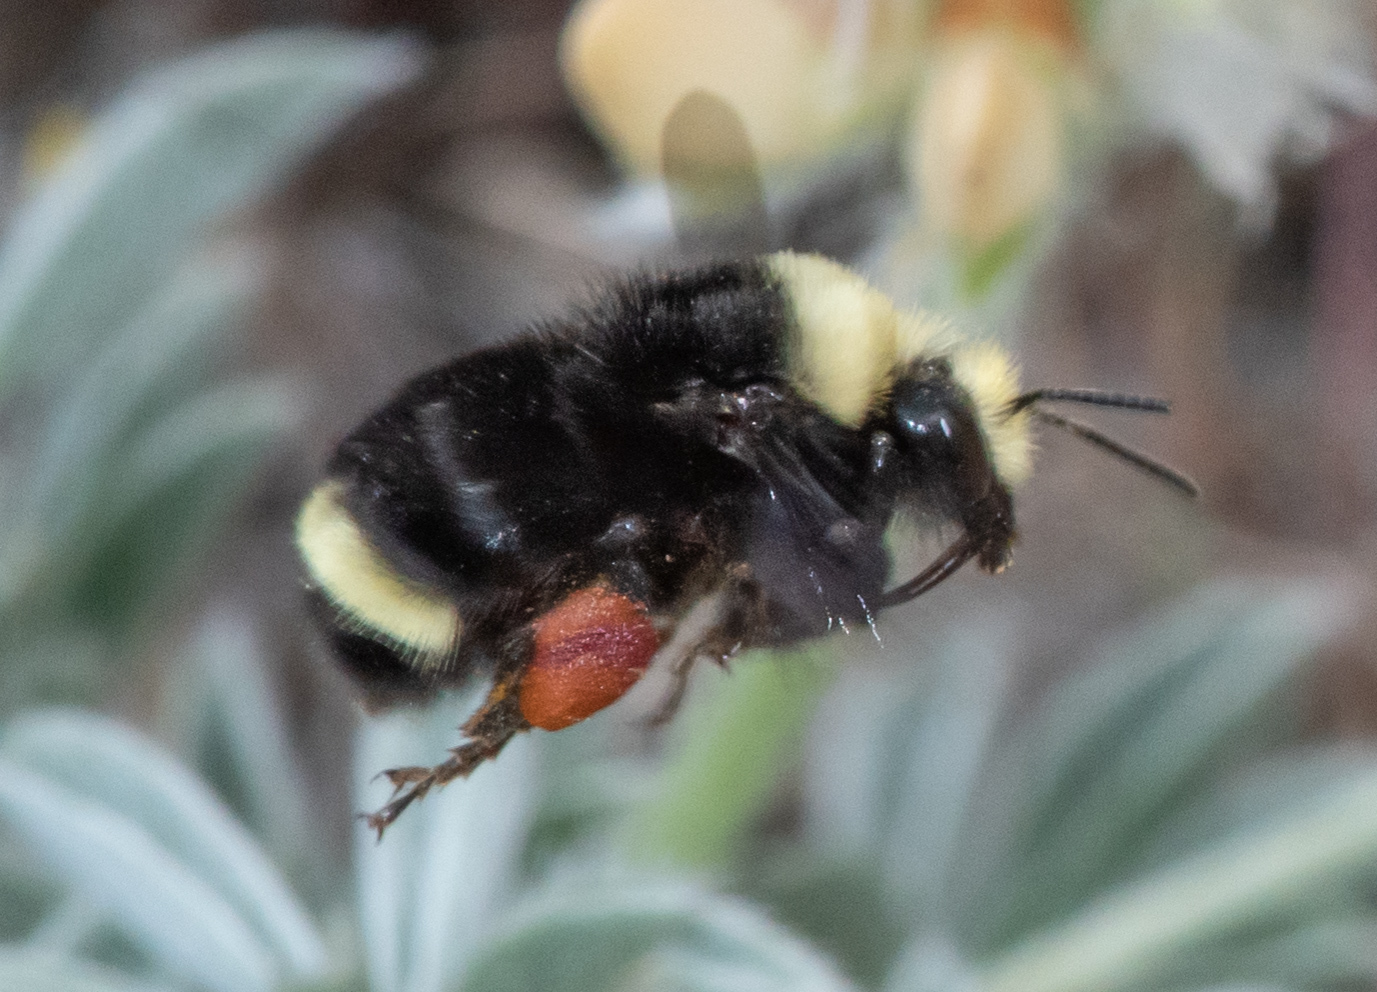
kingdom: Animalia
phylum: Arthropoda
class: Insecta
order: Hymenoptera
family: Apidae
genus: Bombus
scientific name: Bombus vosnesenskii
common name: Vosnesensky bumble bee
